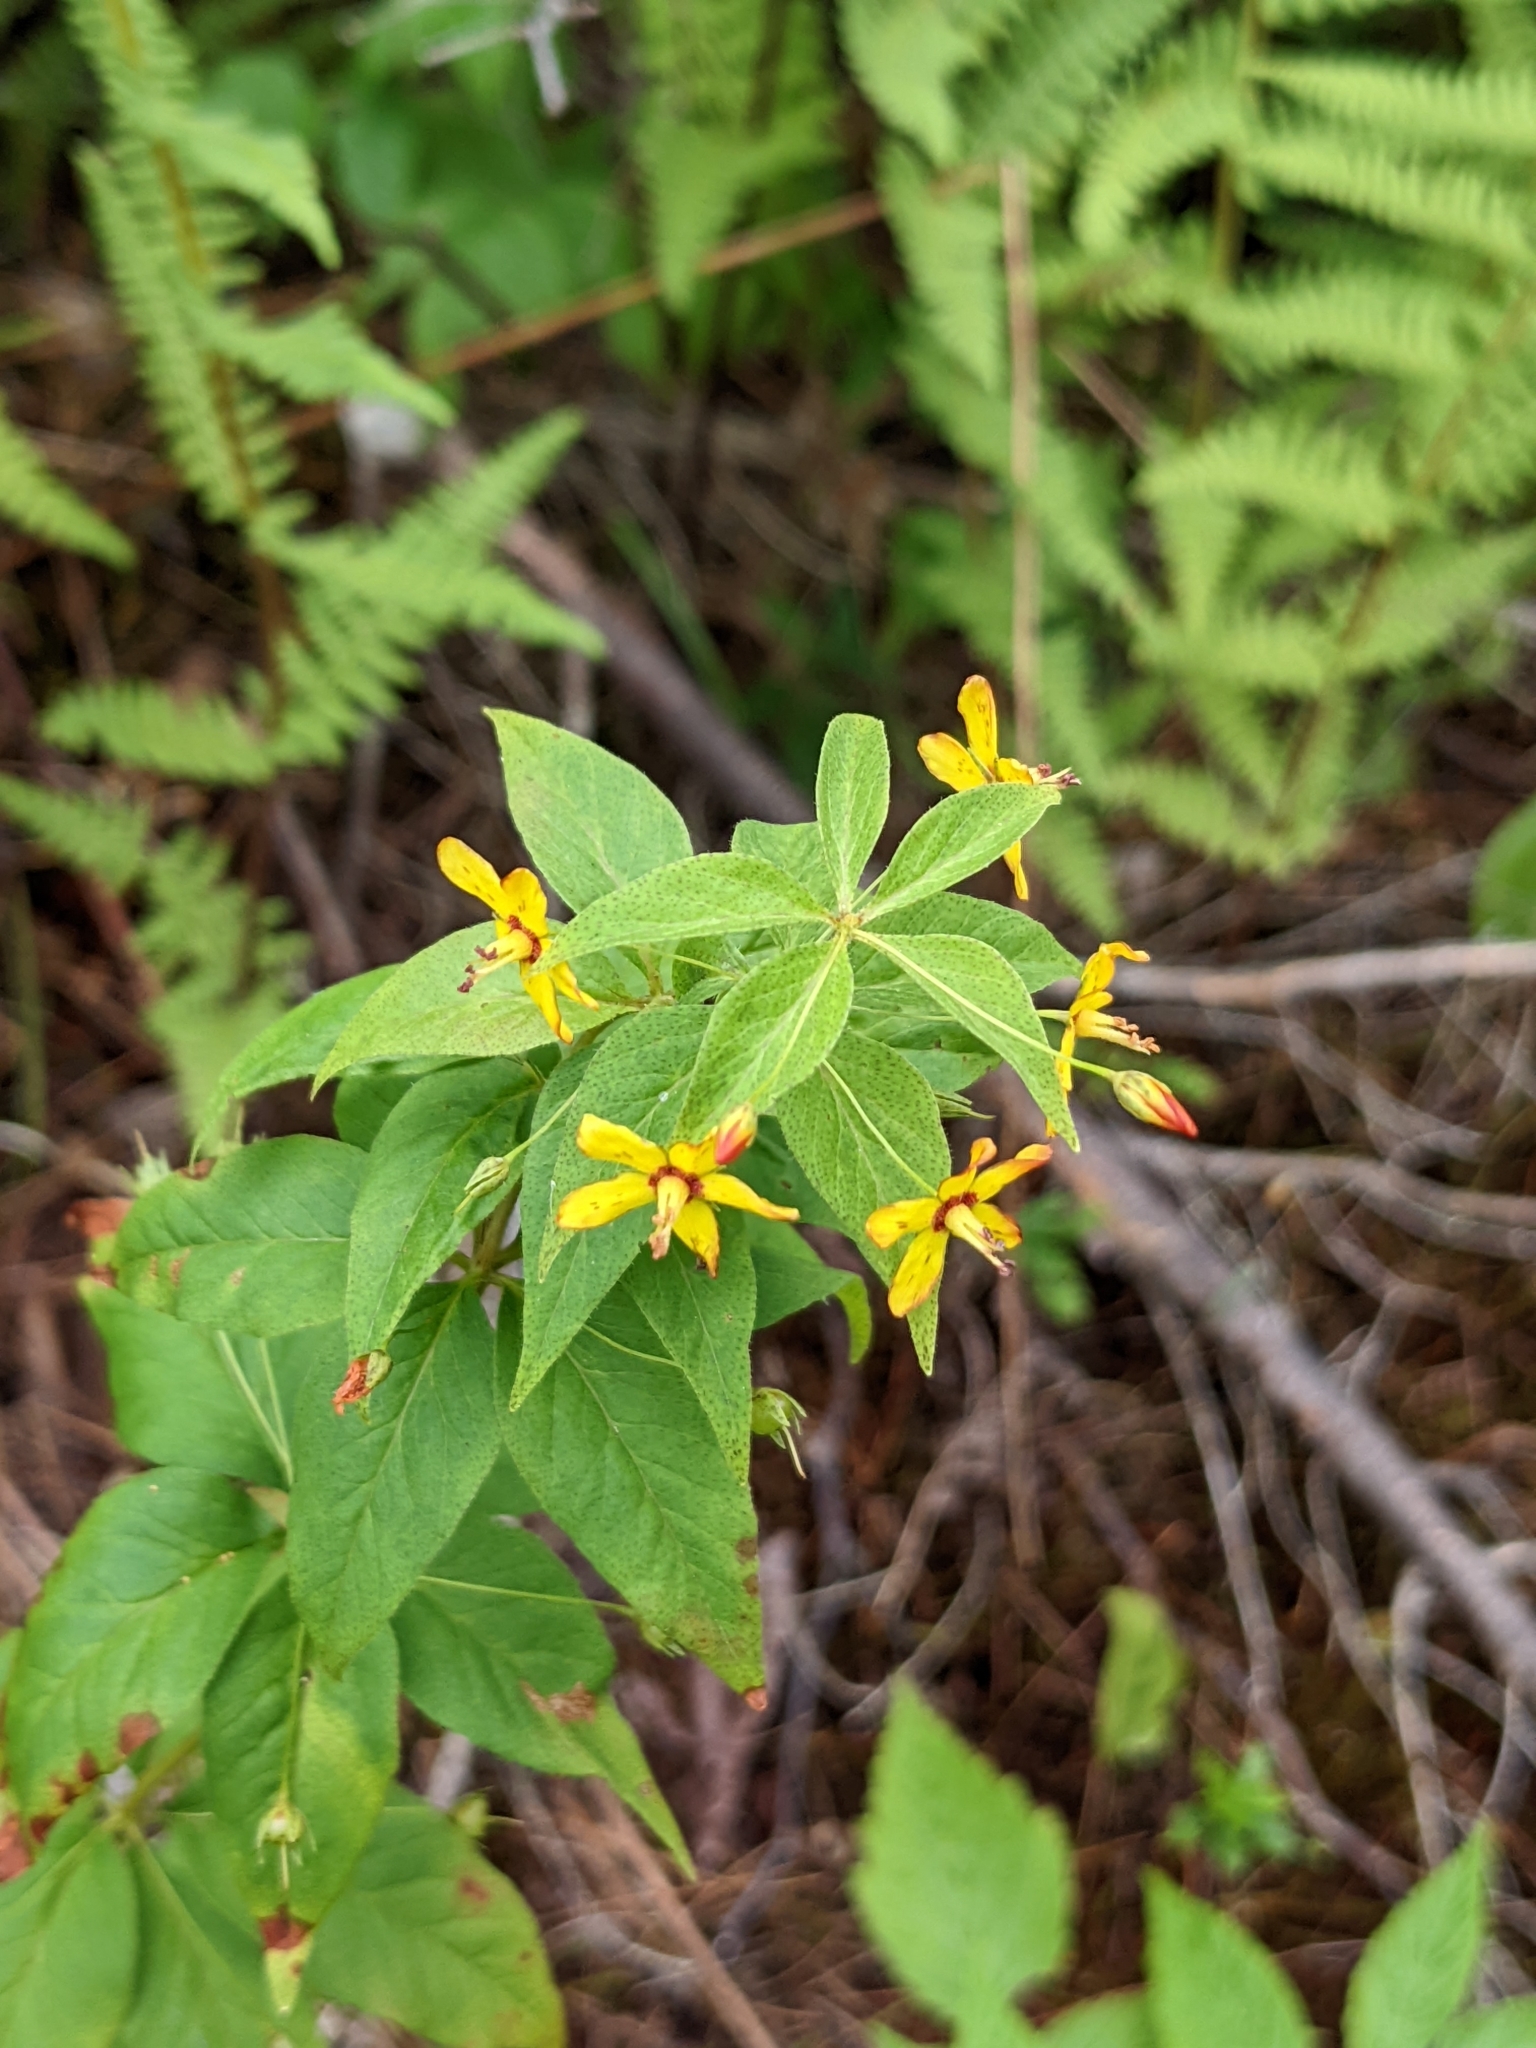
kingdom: Plantae
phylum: Tracheophyta
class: Magnoliopsida
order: Ericales
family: Primulaceae
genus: Lysimachia
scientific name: Lysimachia quadrifolia
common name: Whorled loosestrife
